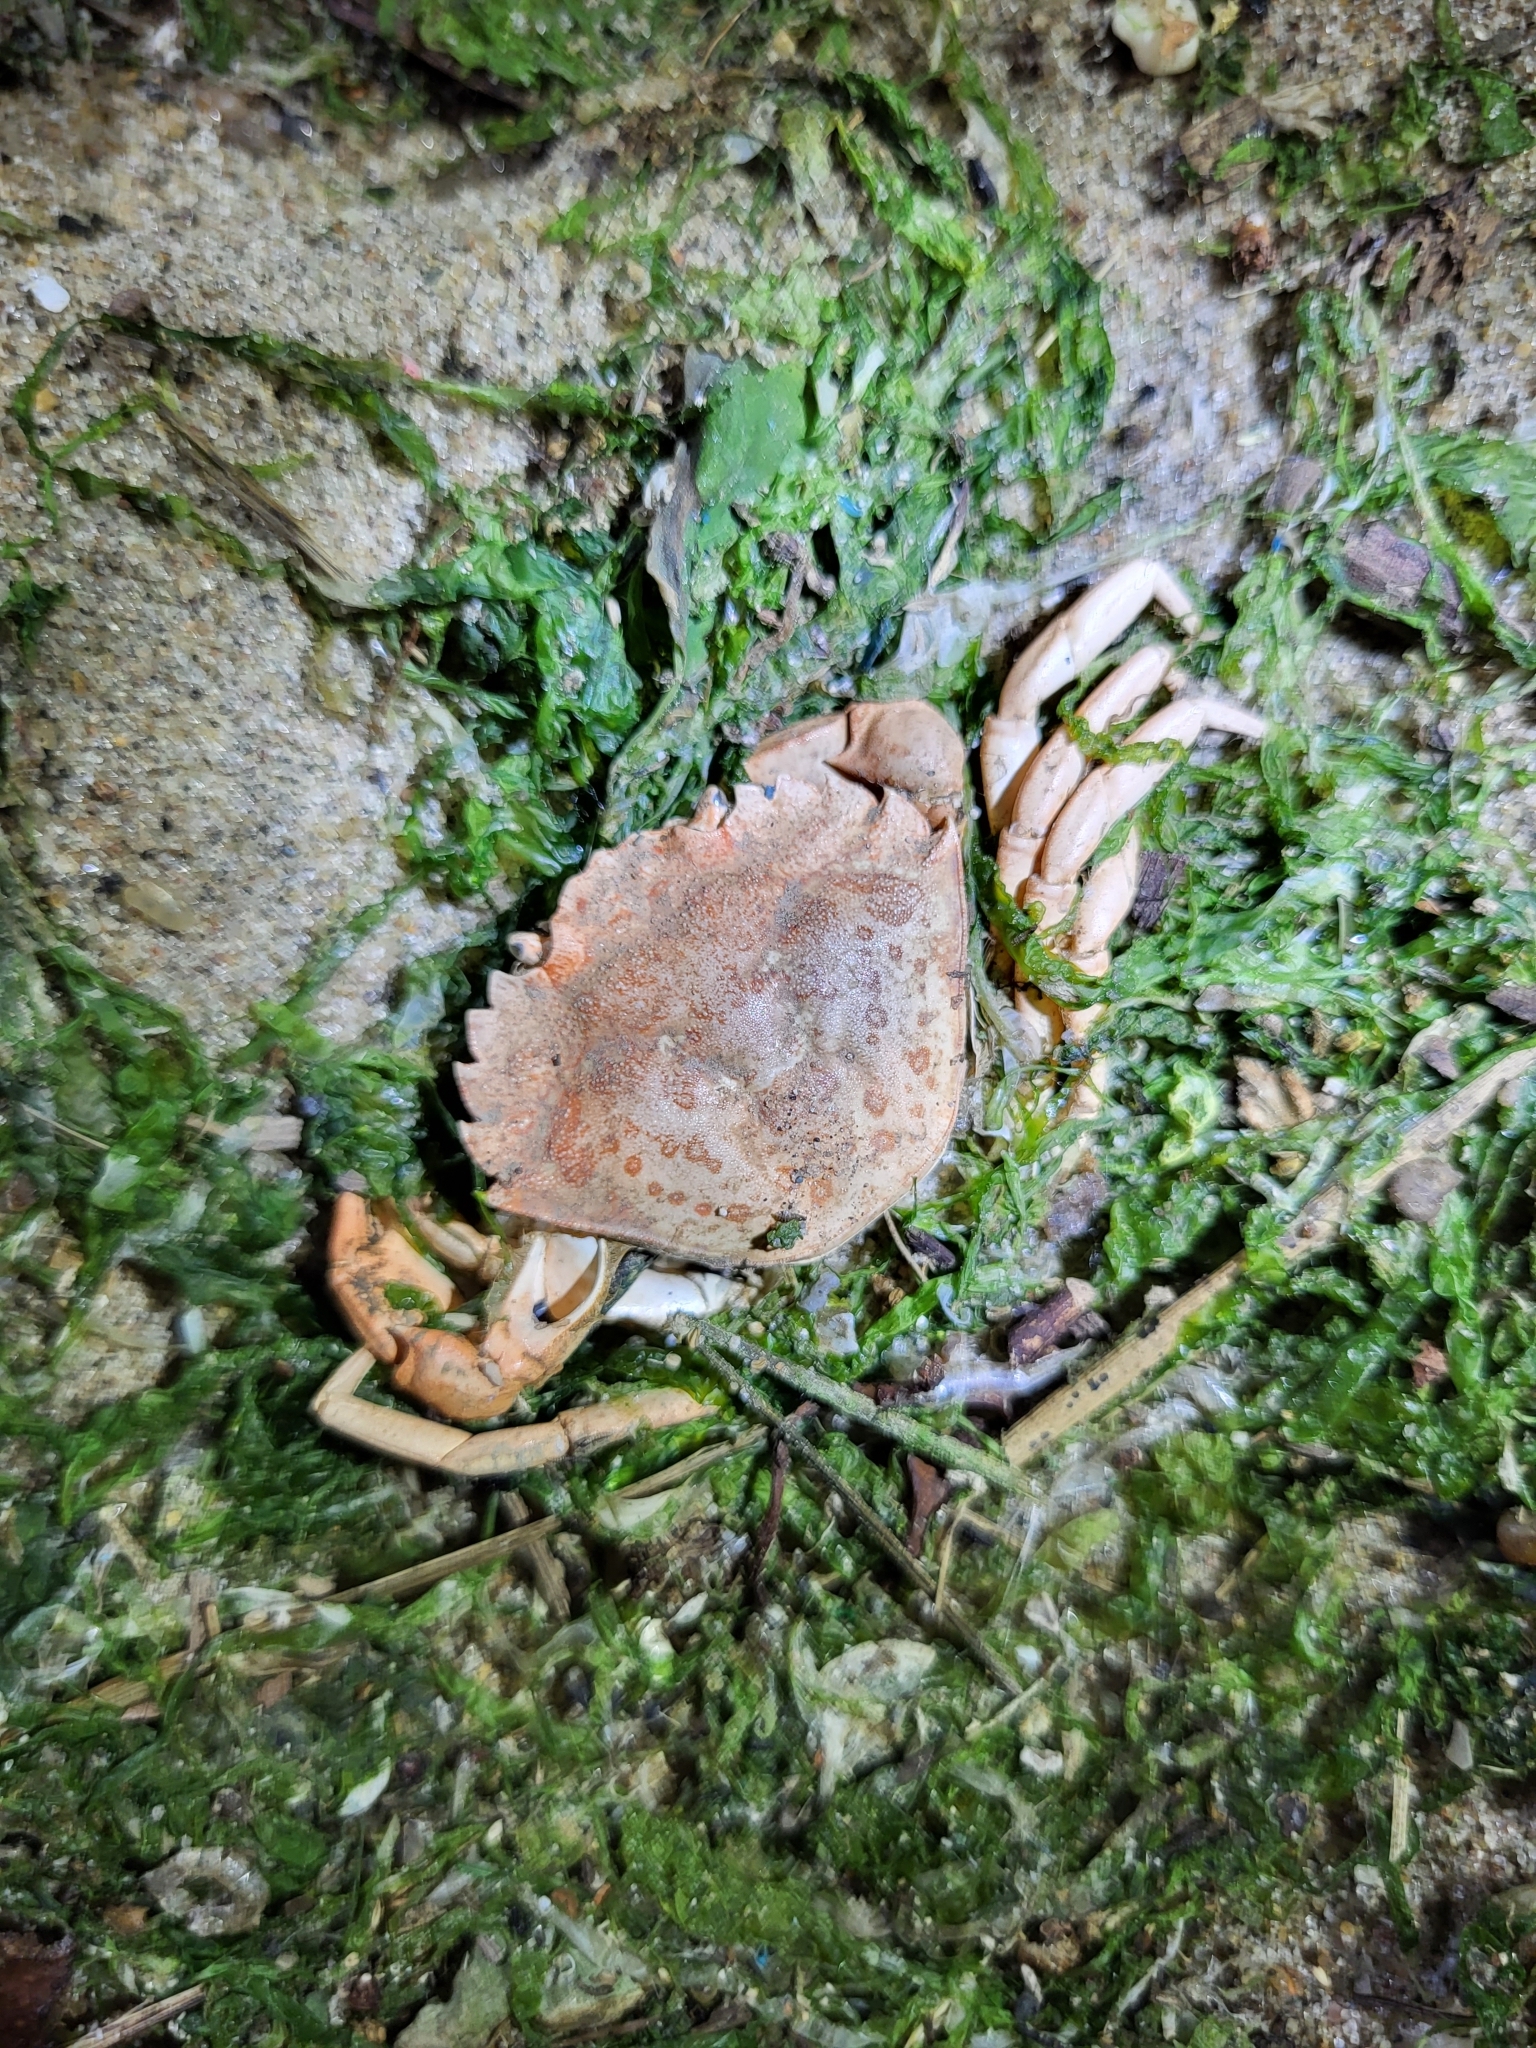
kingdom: Animalia
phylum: Arthropoda
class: Malacostraca
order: Decapoda
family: Carcinidae
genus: Carcinus
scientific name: Carcinus maenas
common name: European green crab
